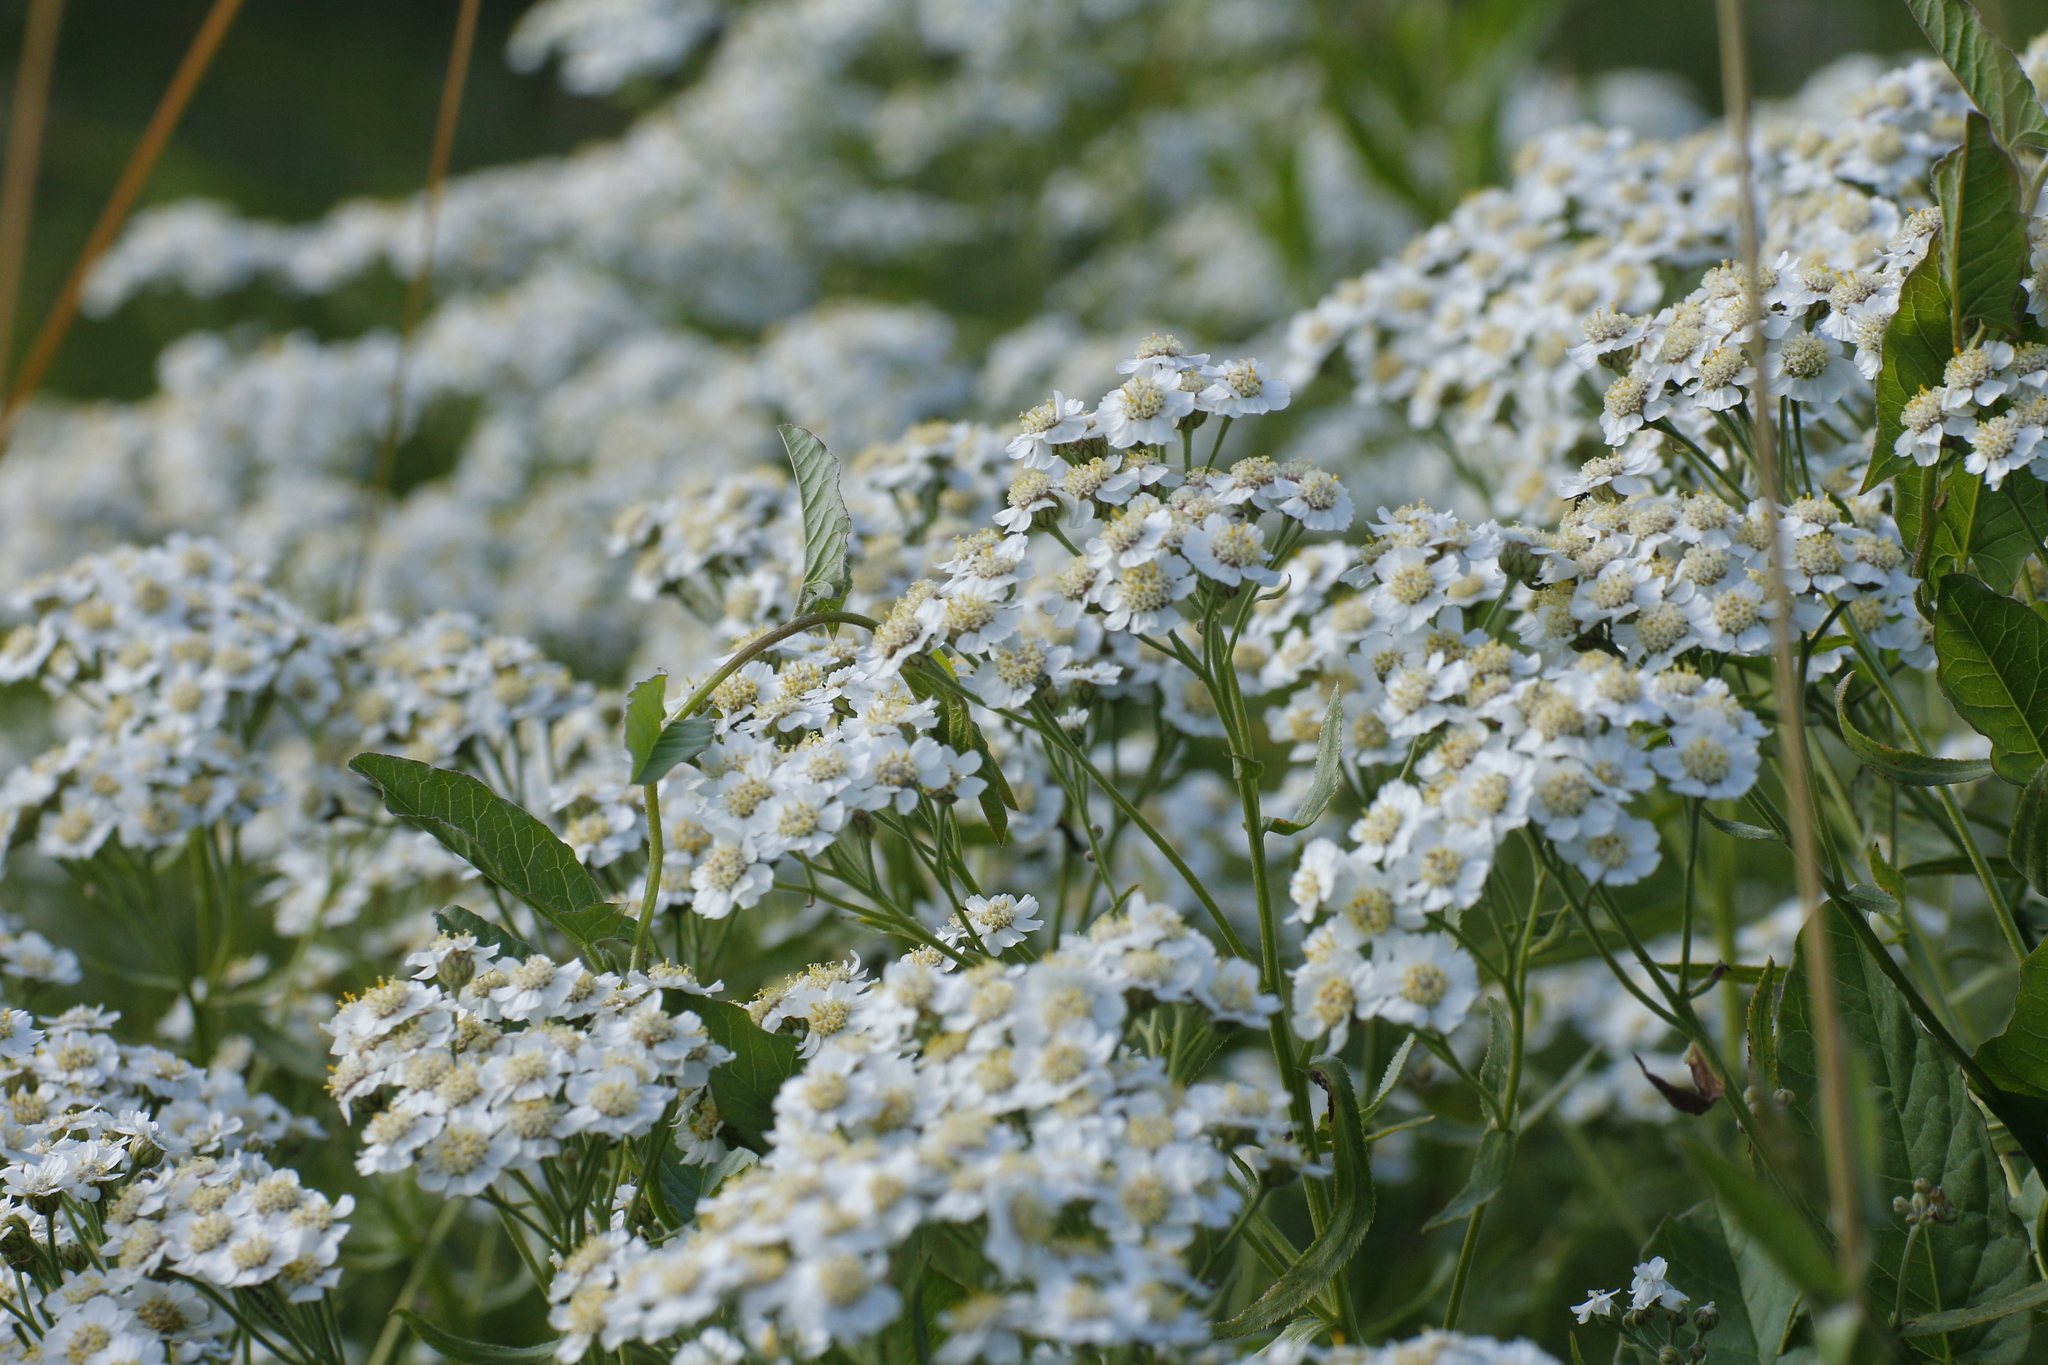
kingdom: Plantae
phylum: Tracheophyta
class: Magnoliopsida
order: Asterales
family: Asteraceae
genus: Achillea
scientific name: Achillea salicifolia
